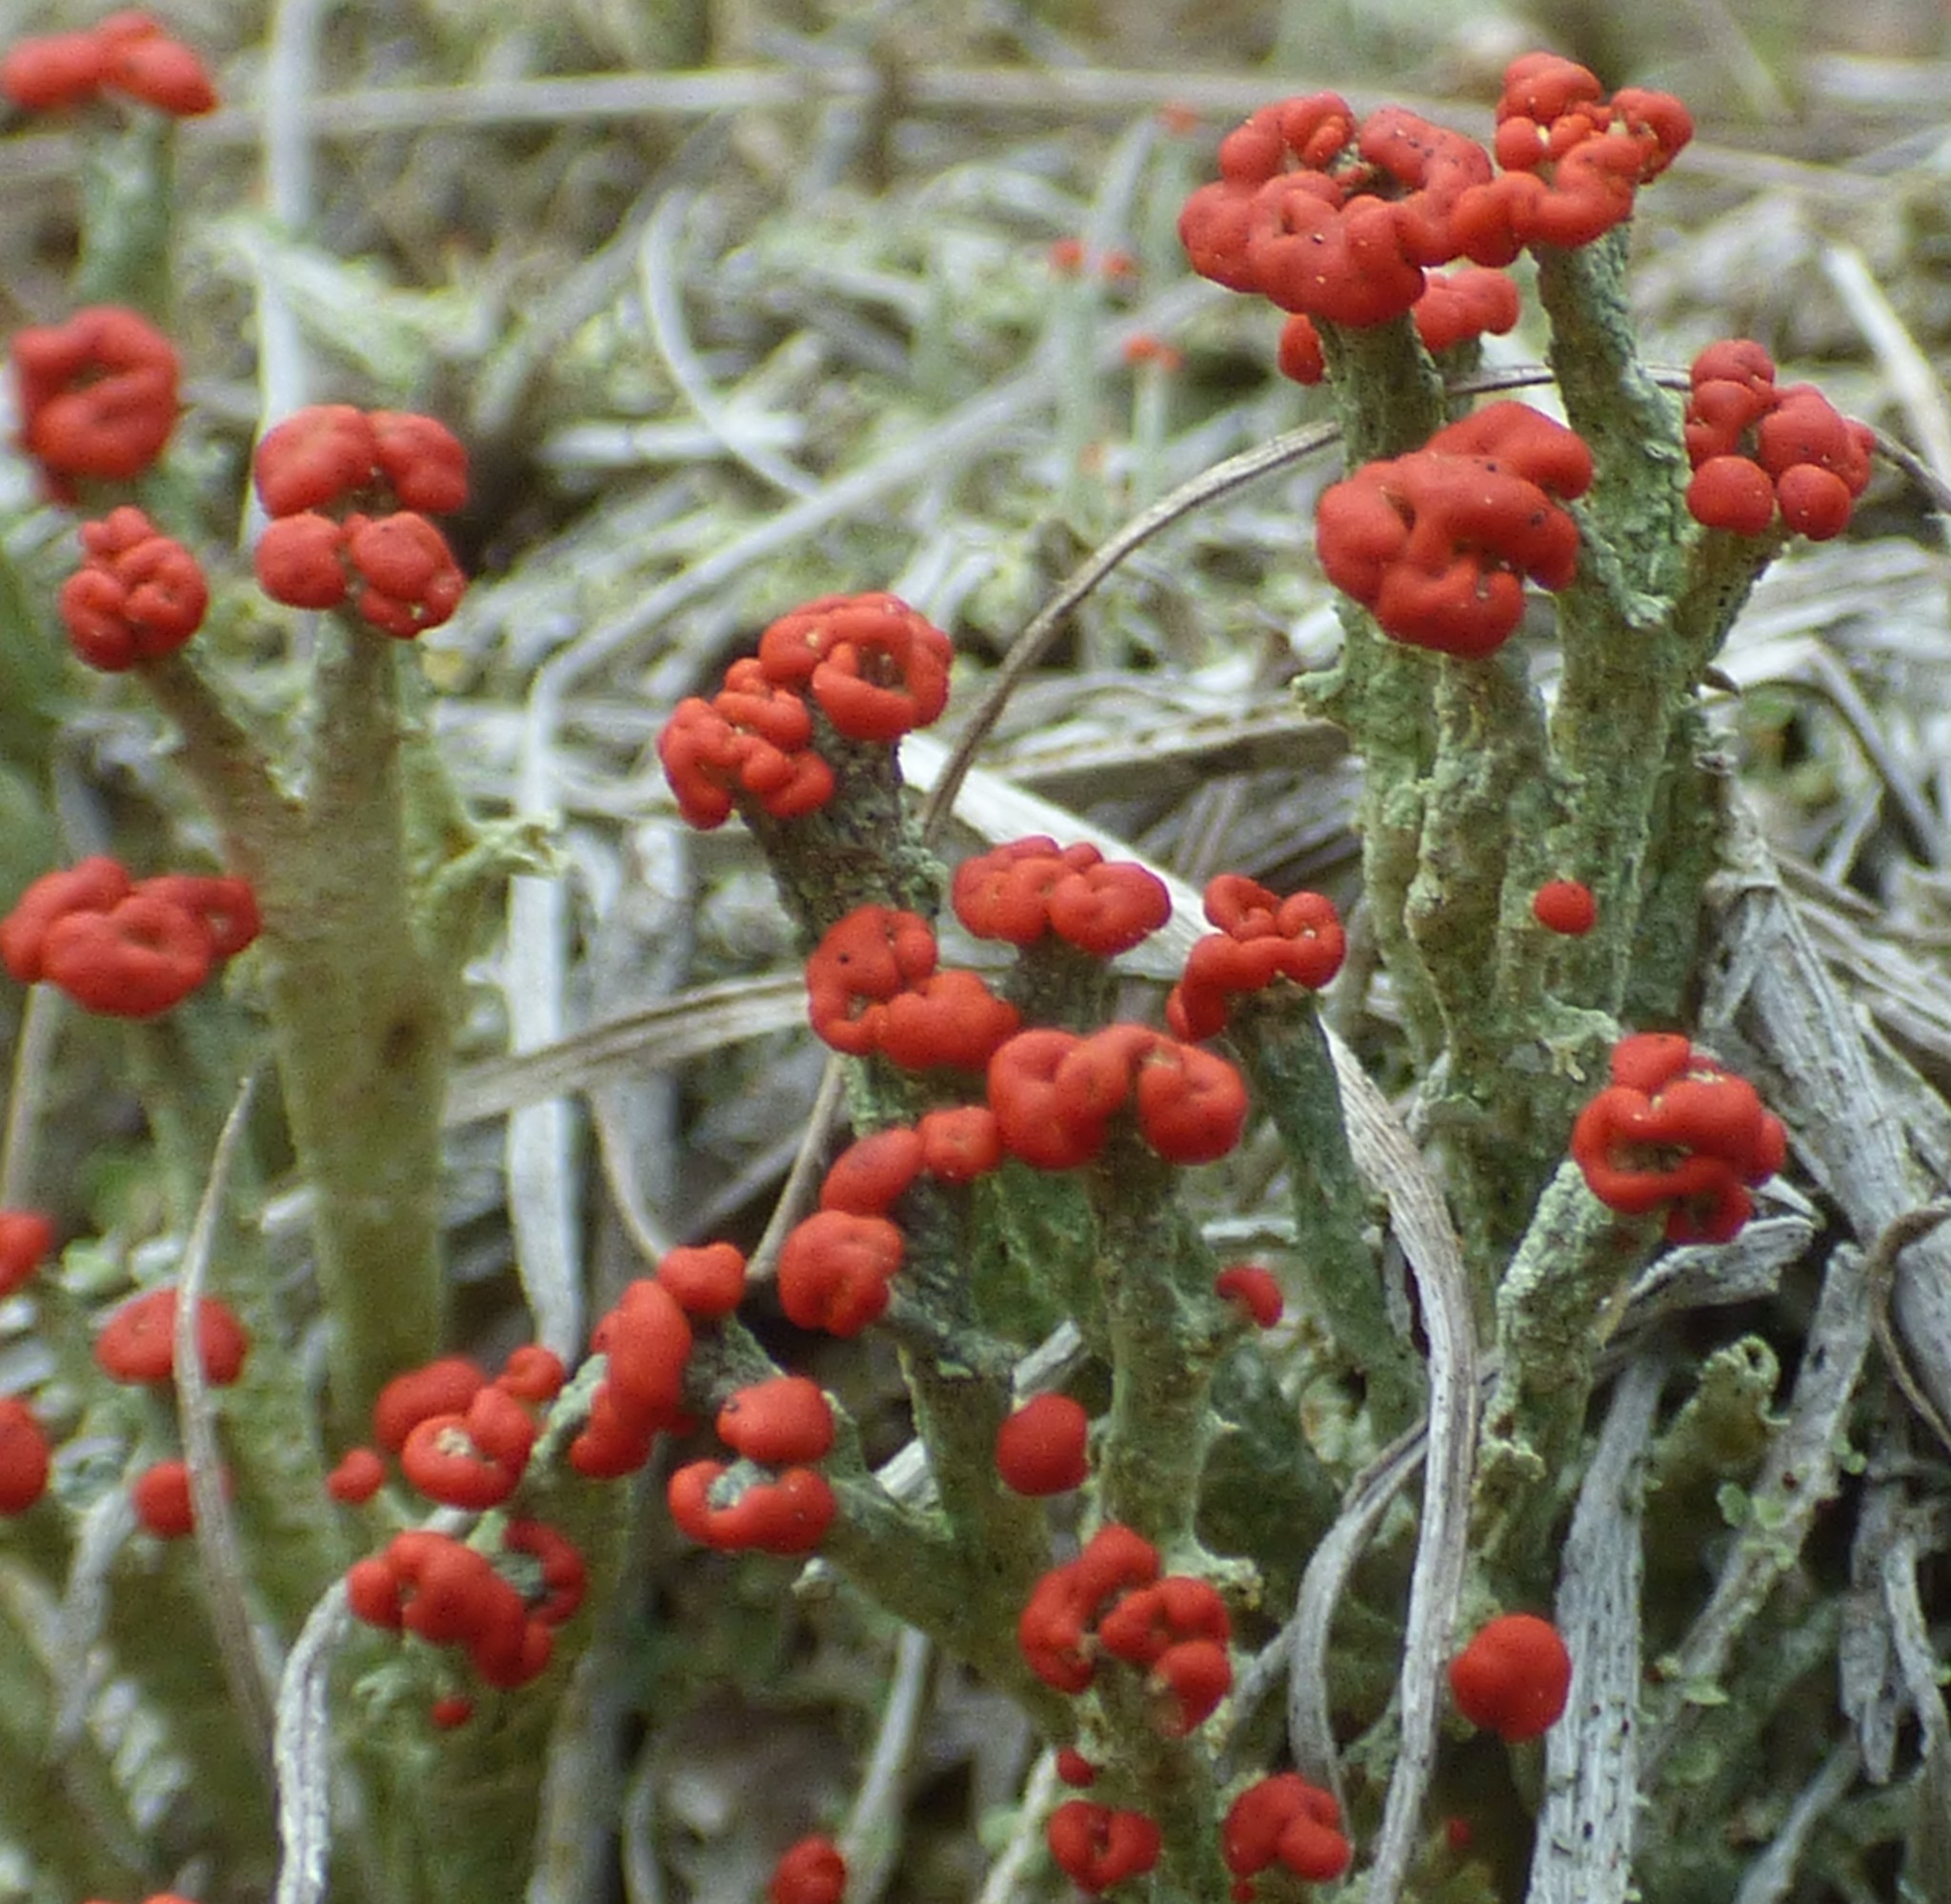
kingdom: Fungi
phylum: Ascomycota
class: Lecanoromycetes
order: Lecanorales
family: Cladoniaceae
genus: Cladonia
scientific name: Cladonia cristatella
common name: British soldier lichen
